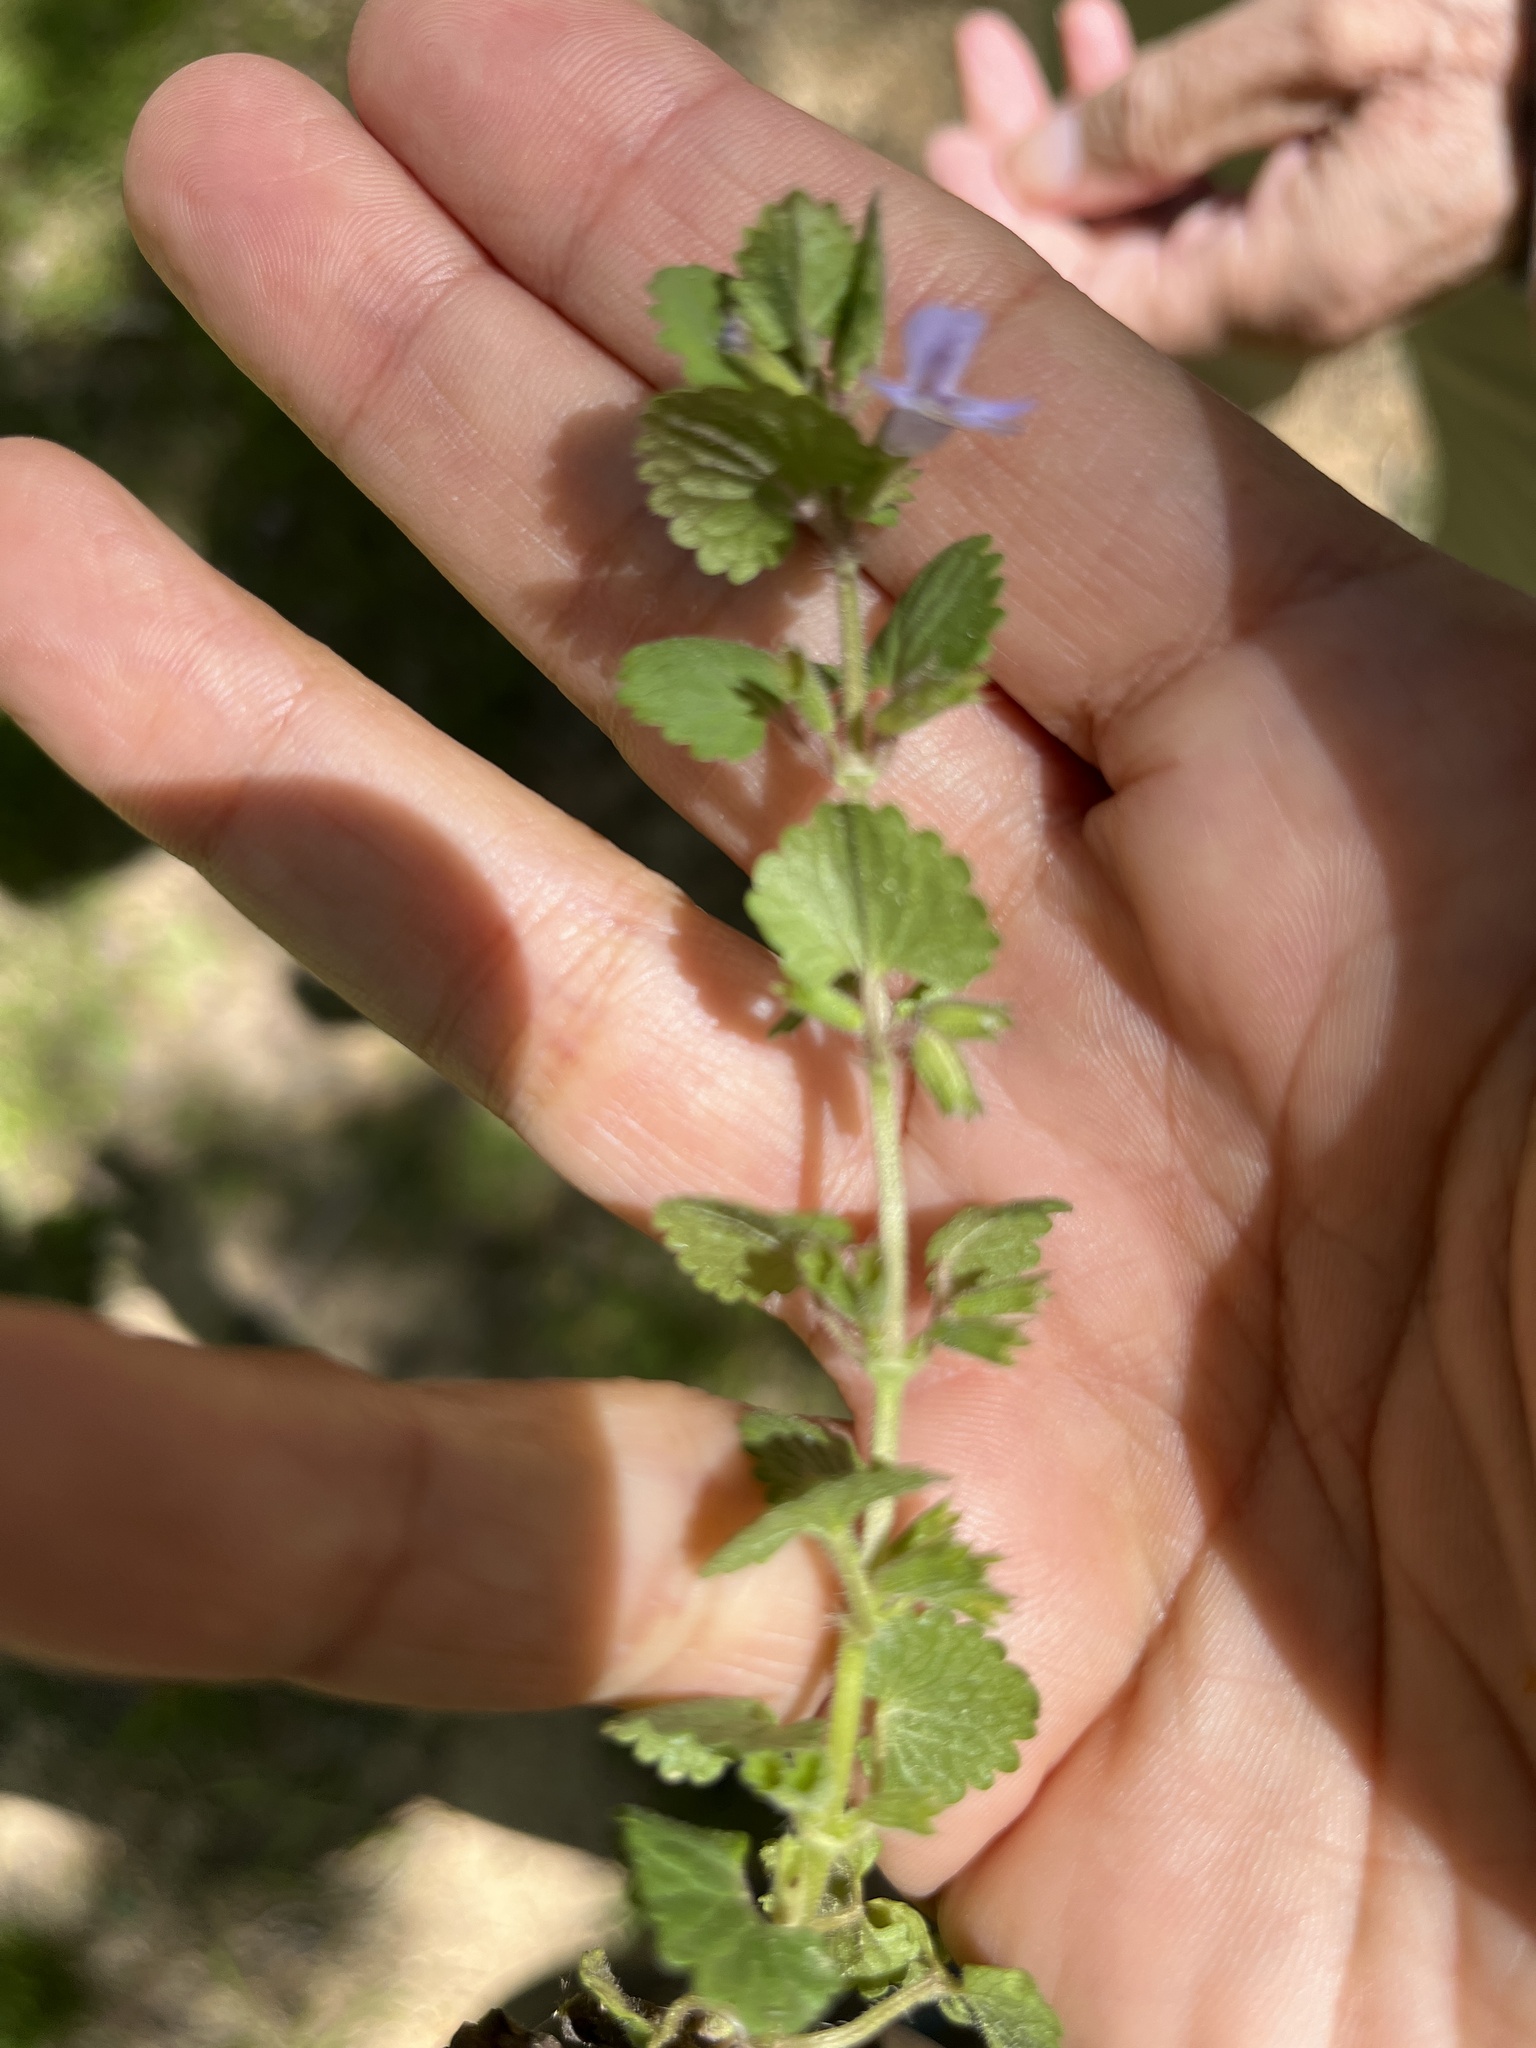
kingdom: Plantae
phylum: Tracheophyta
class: Magnoliopsida
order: Lamiales
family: Lamiaceae
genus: Glechoma
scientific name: Glechoma hederacea
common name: Ground ivy
